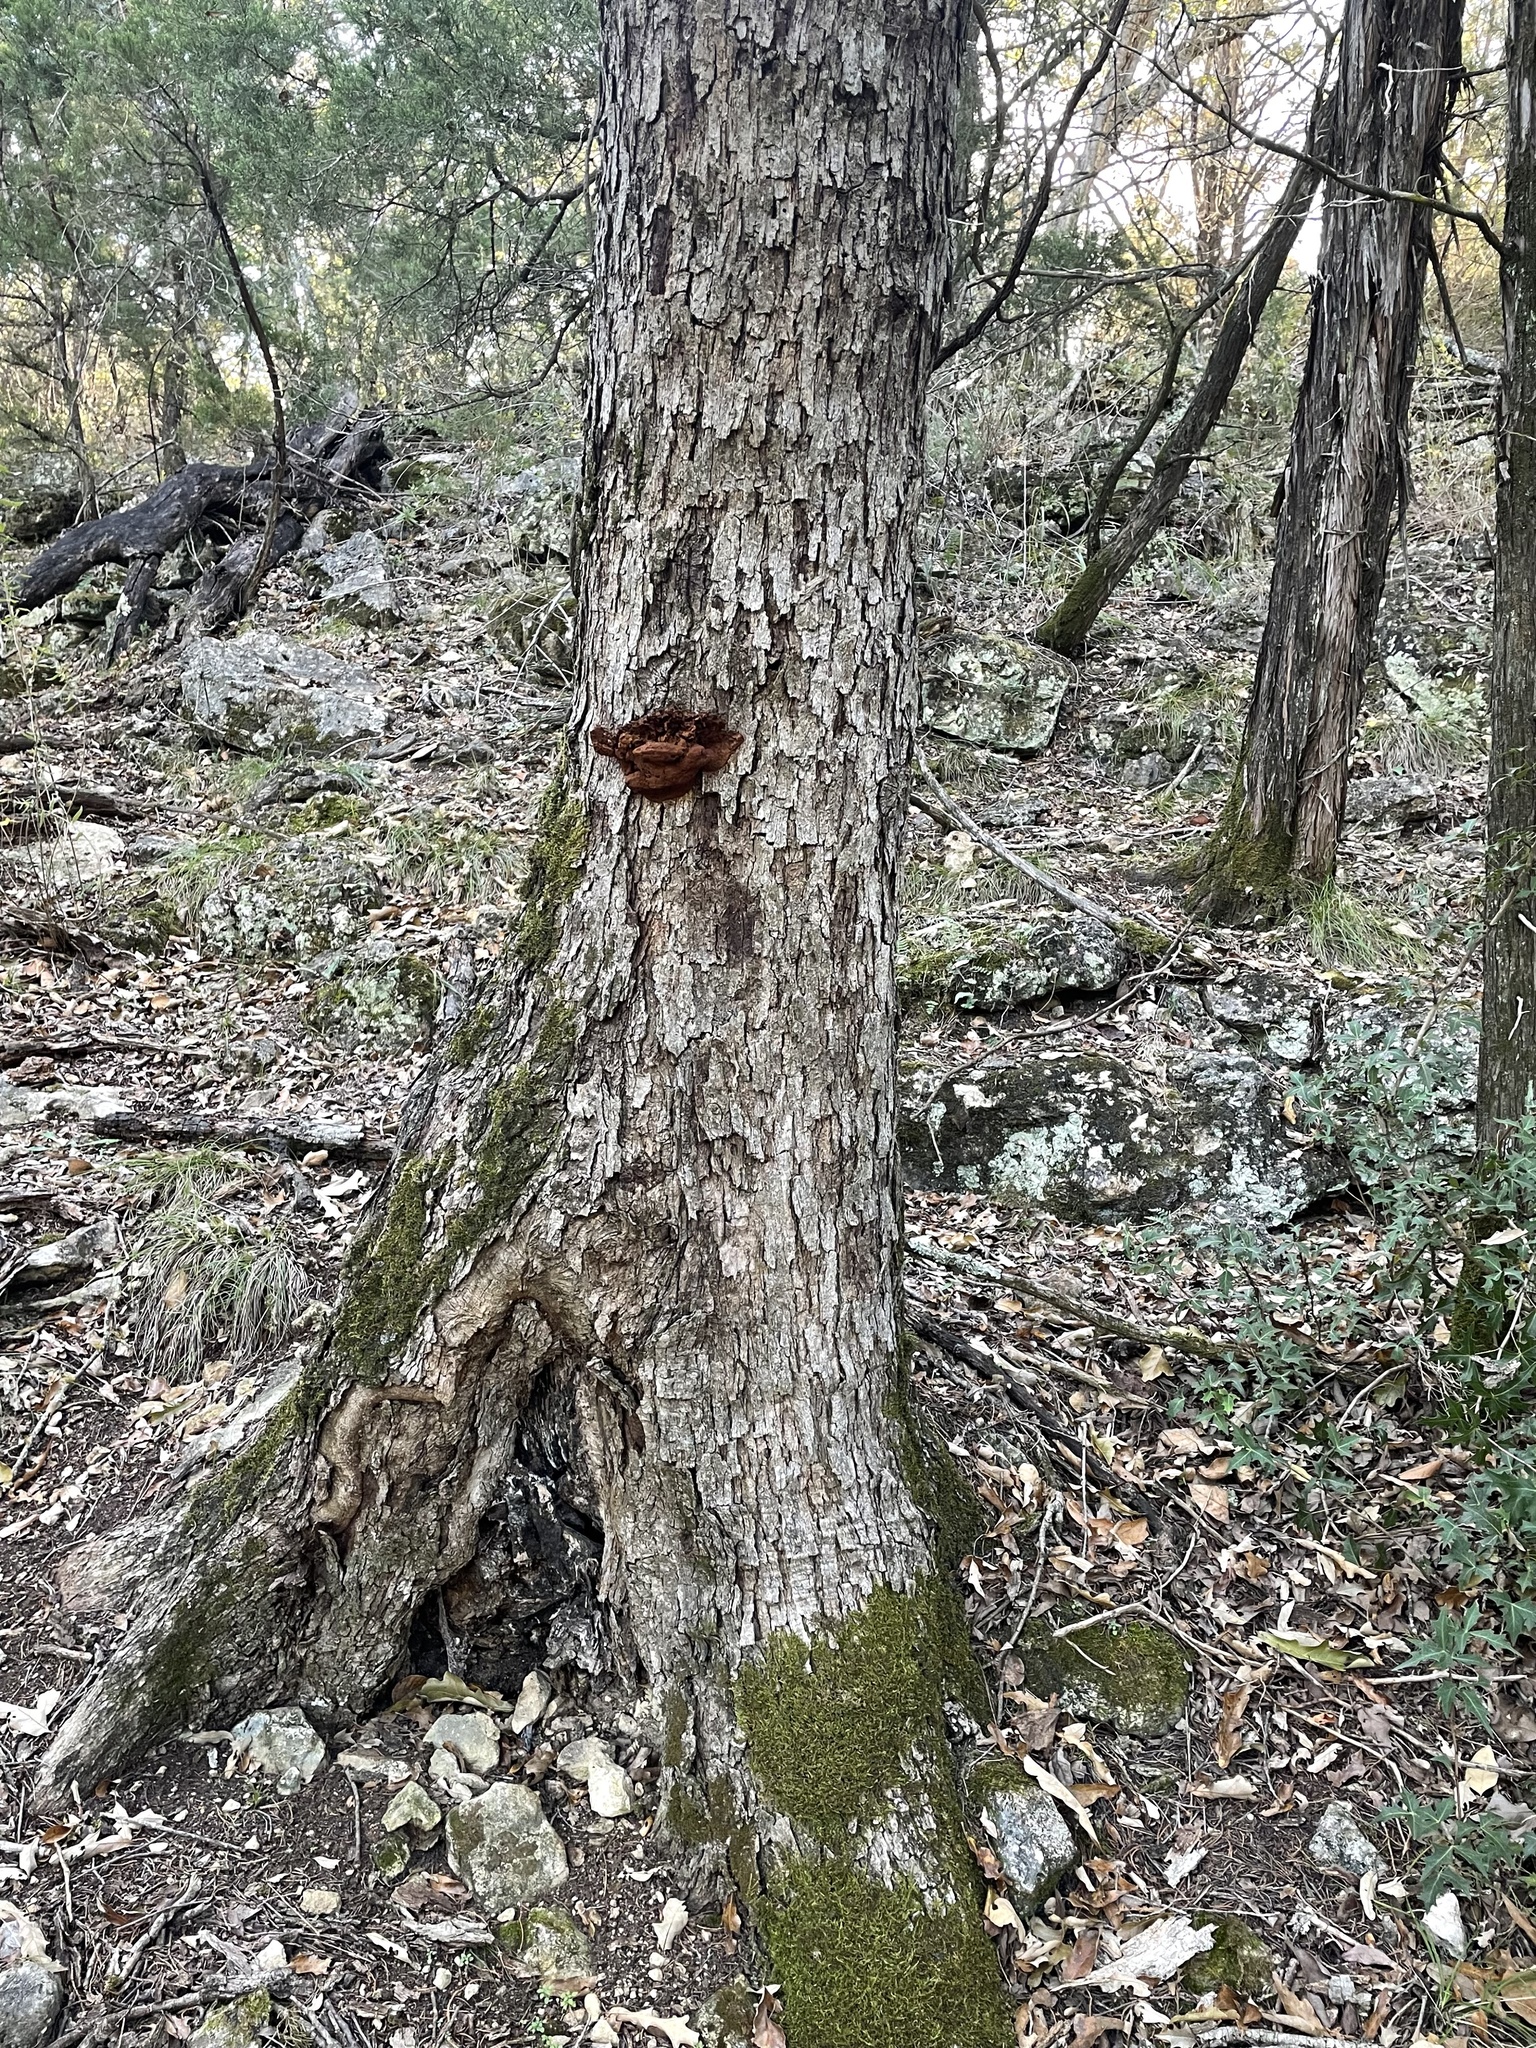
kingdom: Plantae
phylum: Tracheophyta
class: Magnoliopsida
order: Fagales
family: Fagaceae
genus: Quercus
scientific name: Quercus sinuata
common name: Durand oak
